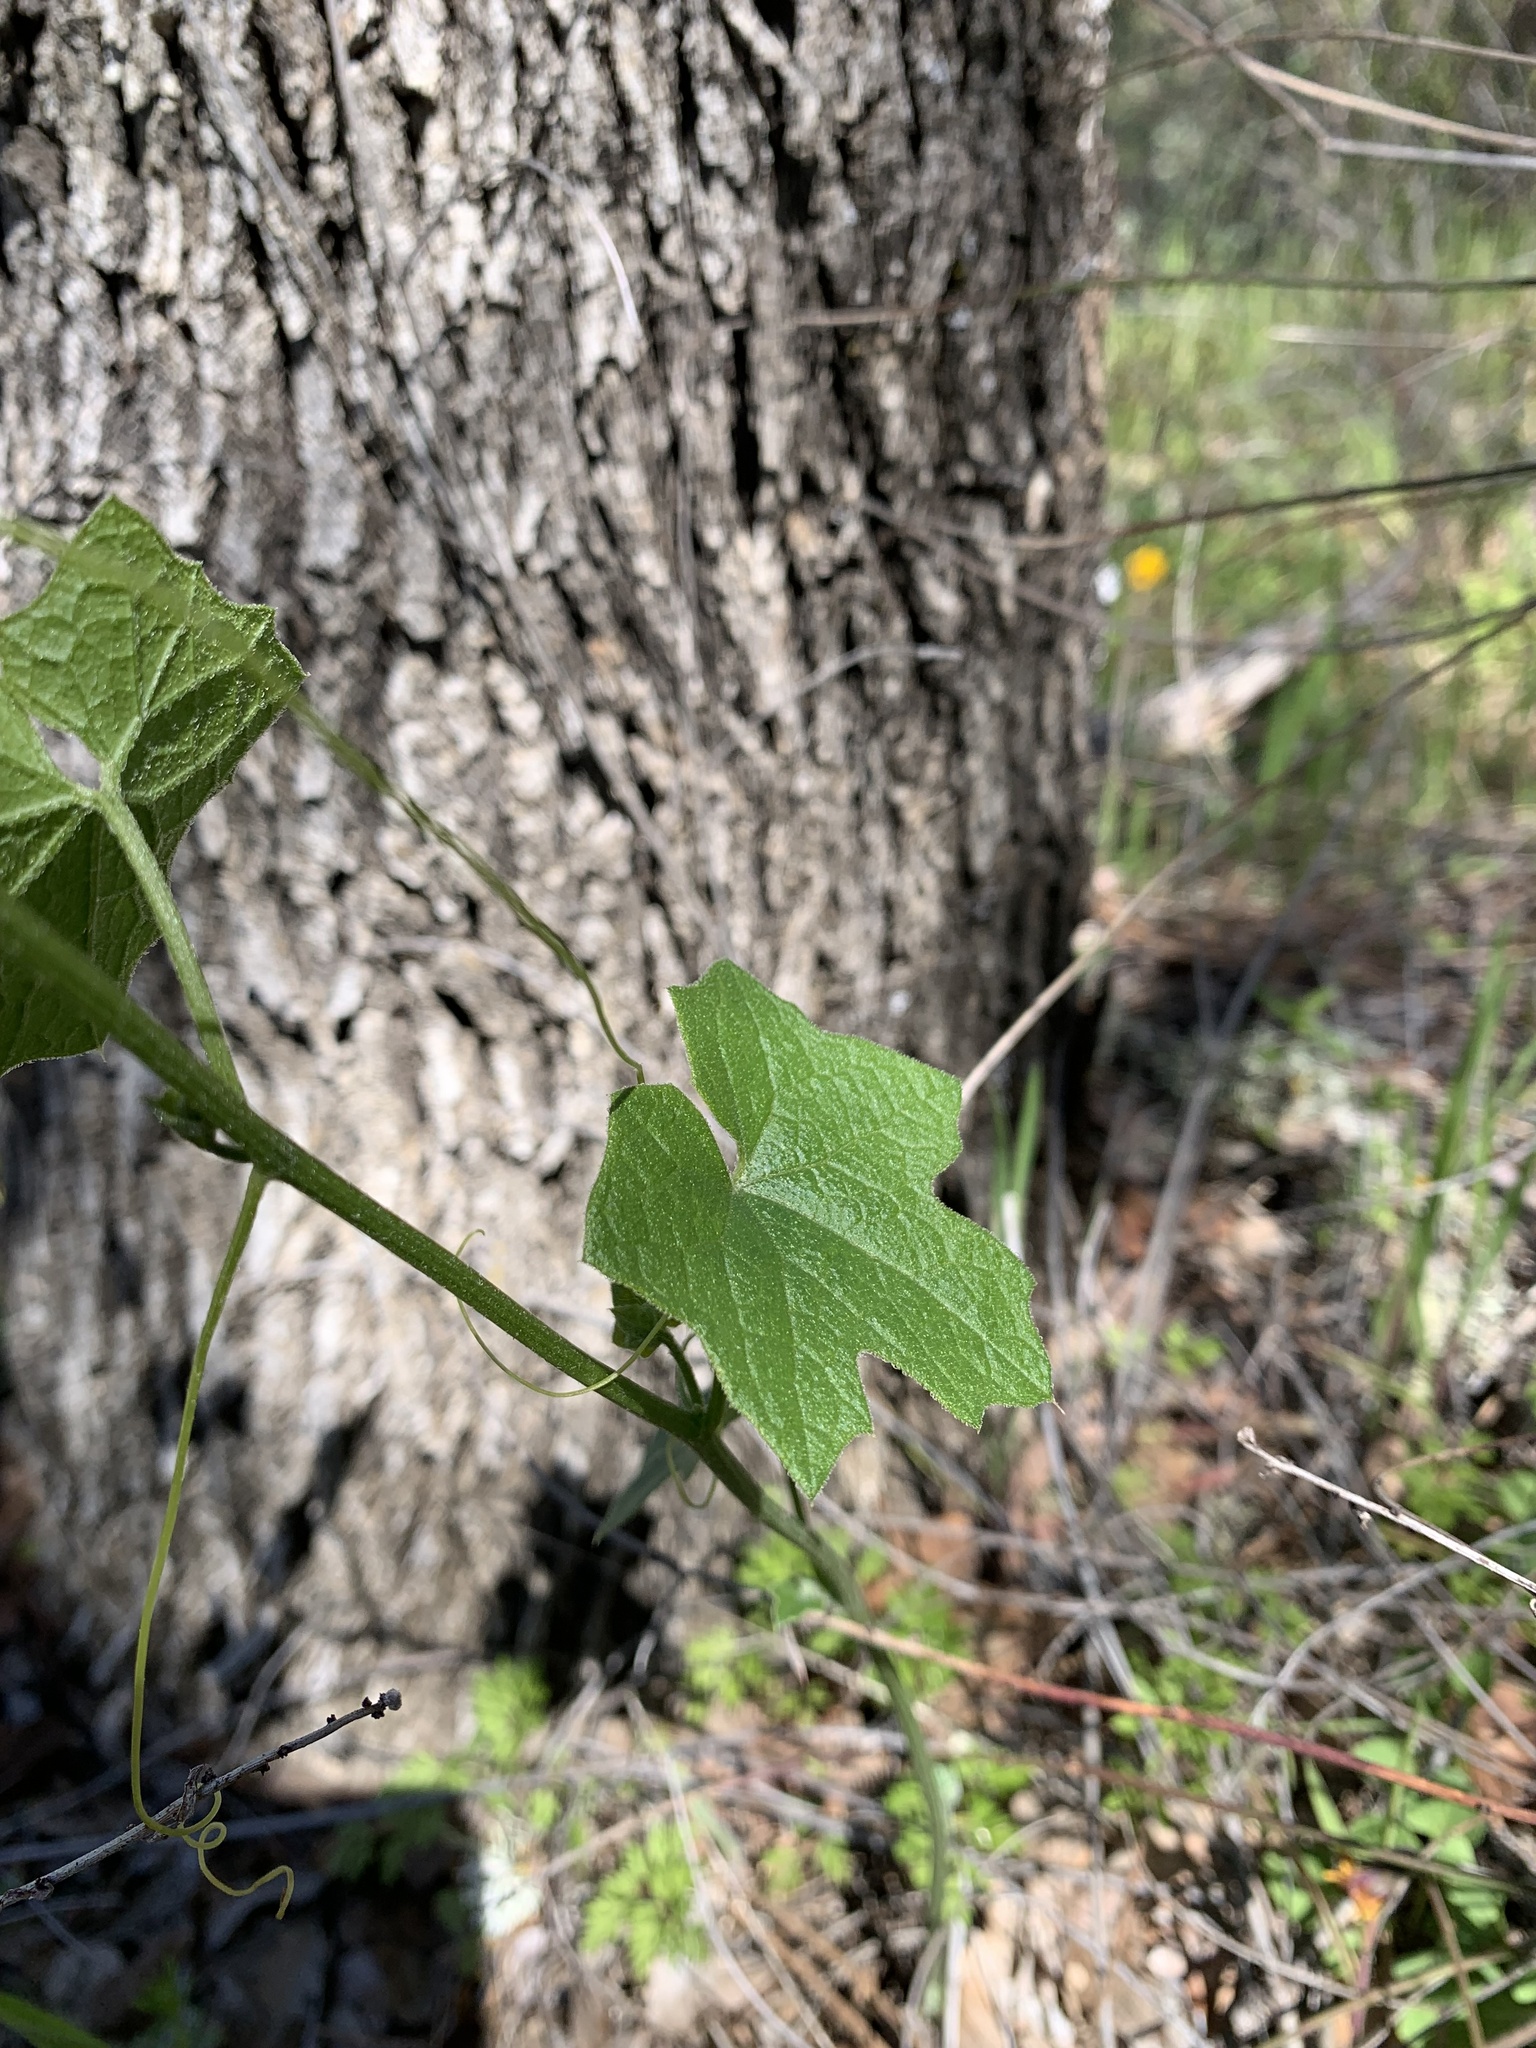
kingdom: Plantae
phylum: Tracheophyta
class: Magnoliopsida
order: Cucurbitales
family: Cucurbitaceae
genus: Marah
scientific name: Marah fabacea
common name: California manroot
